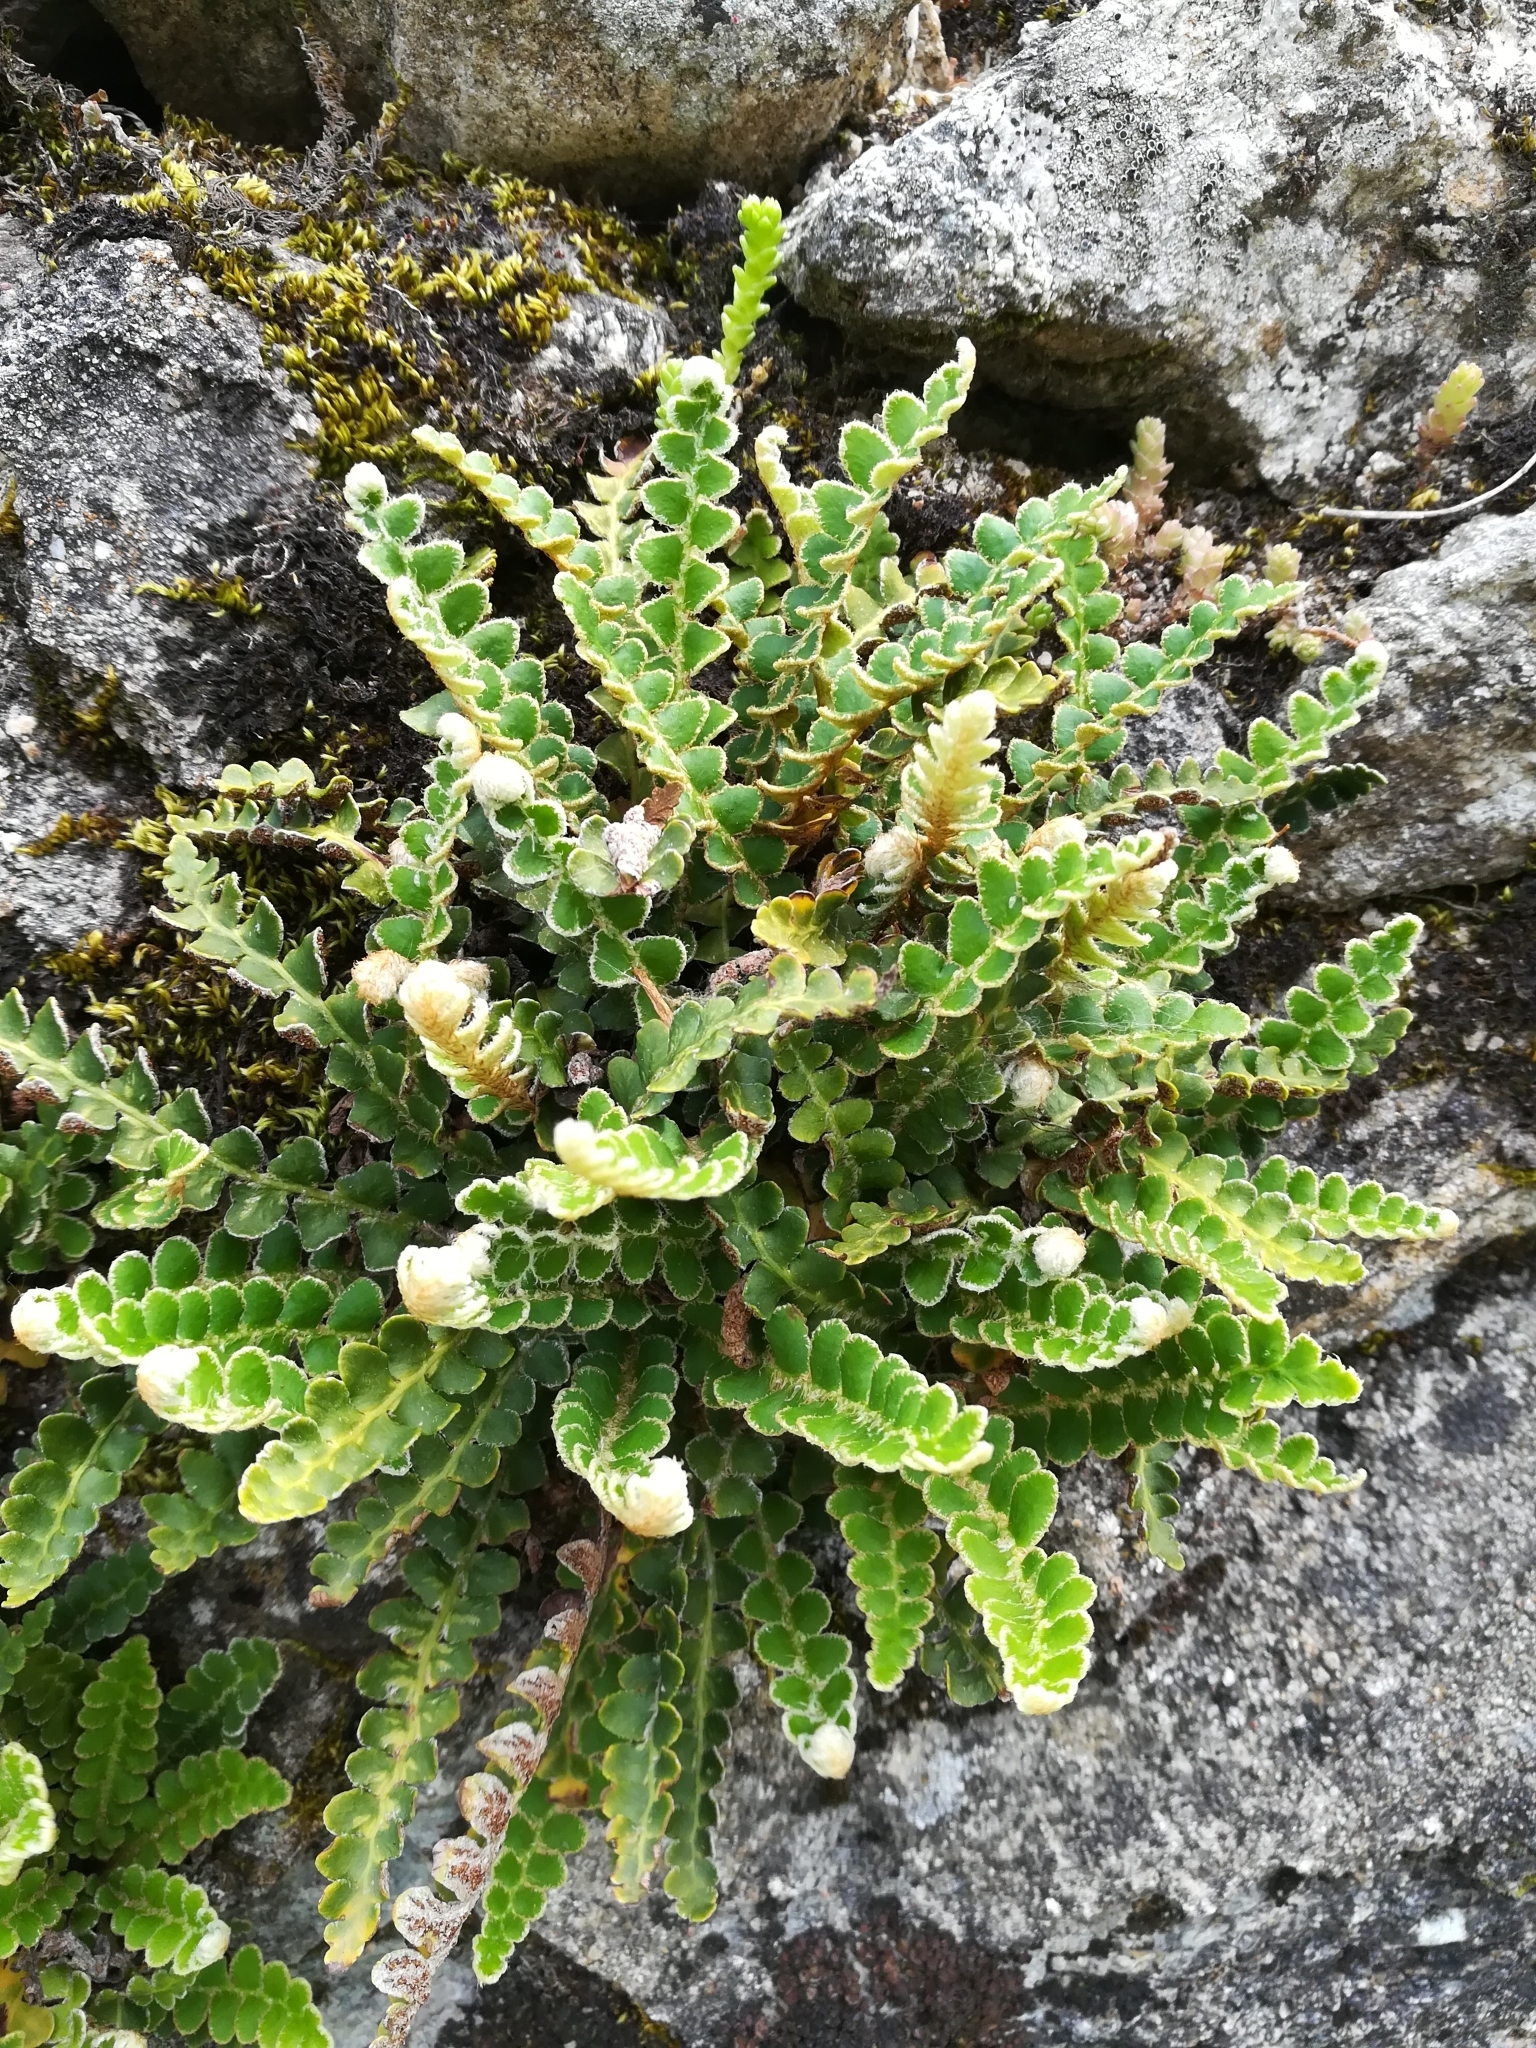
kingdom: Plantae
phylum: Tracheophyta
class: Polypodiopsida
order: Polypodiales
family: Aspleniaceae
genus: Asplenium
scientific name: Asplenium ceterach
